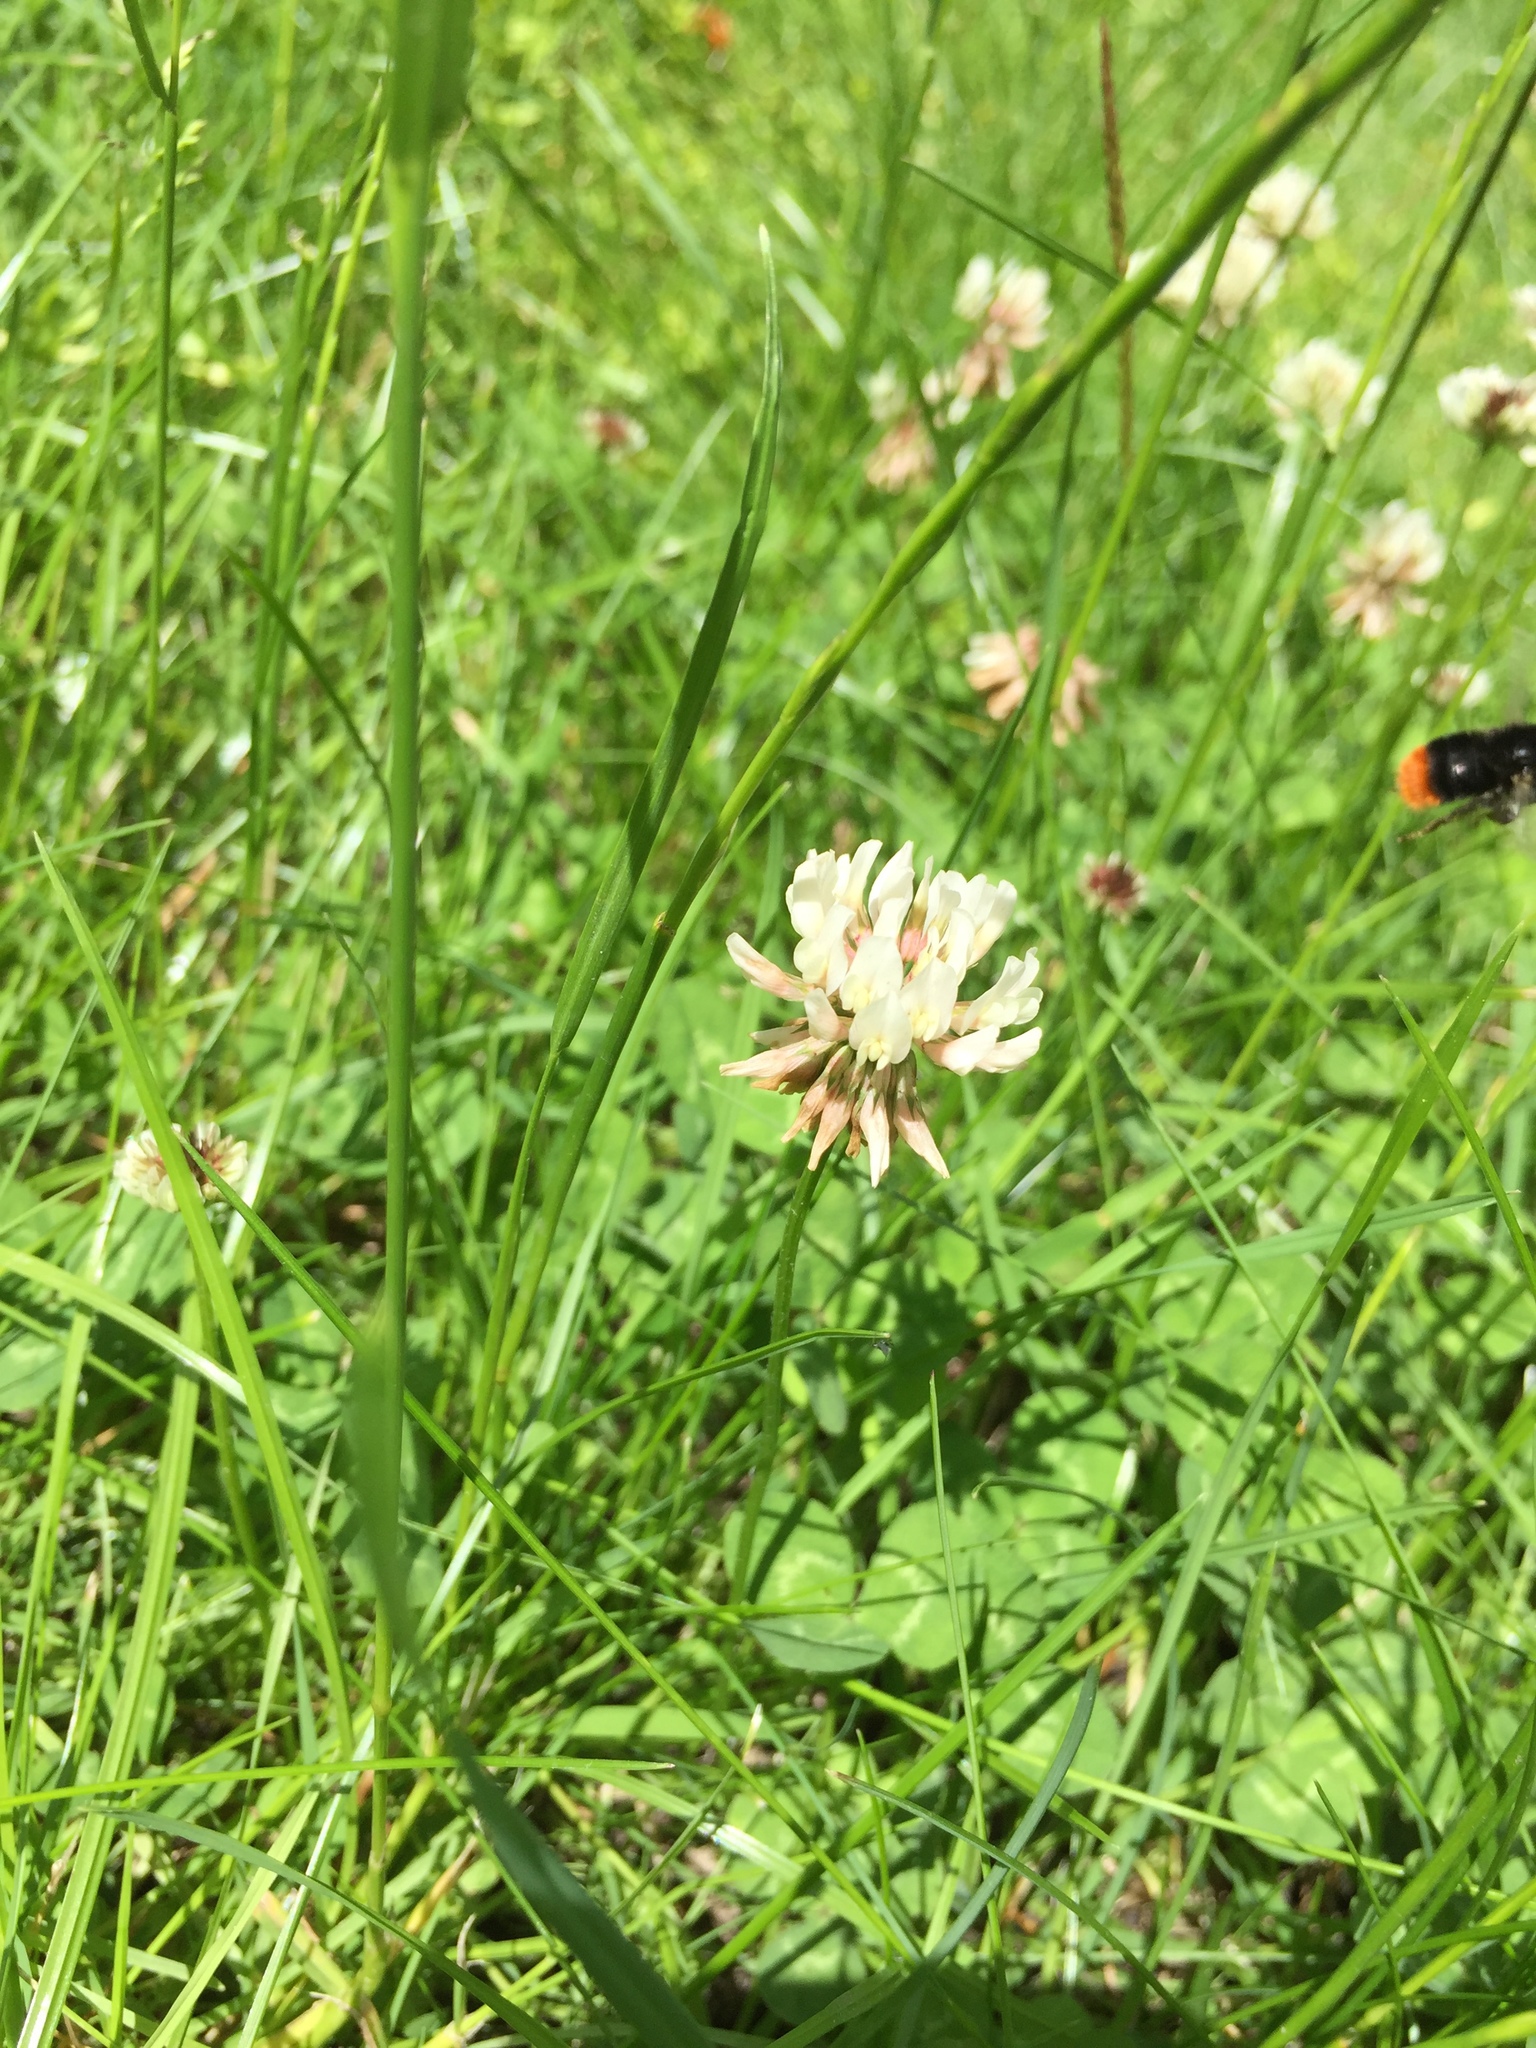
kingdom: Plantae
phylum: Tracheophyta
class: Magnoliopsida
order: Fabales
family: Fabaceae
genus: Trifolium
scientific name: Trifolium repens
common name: White clover
